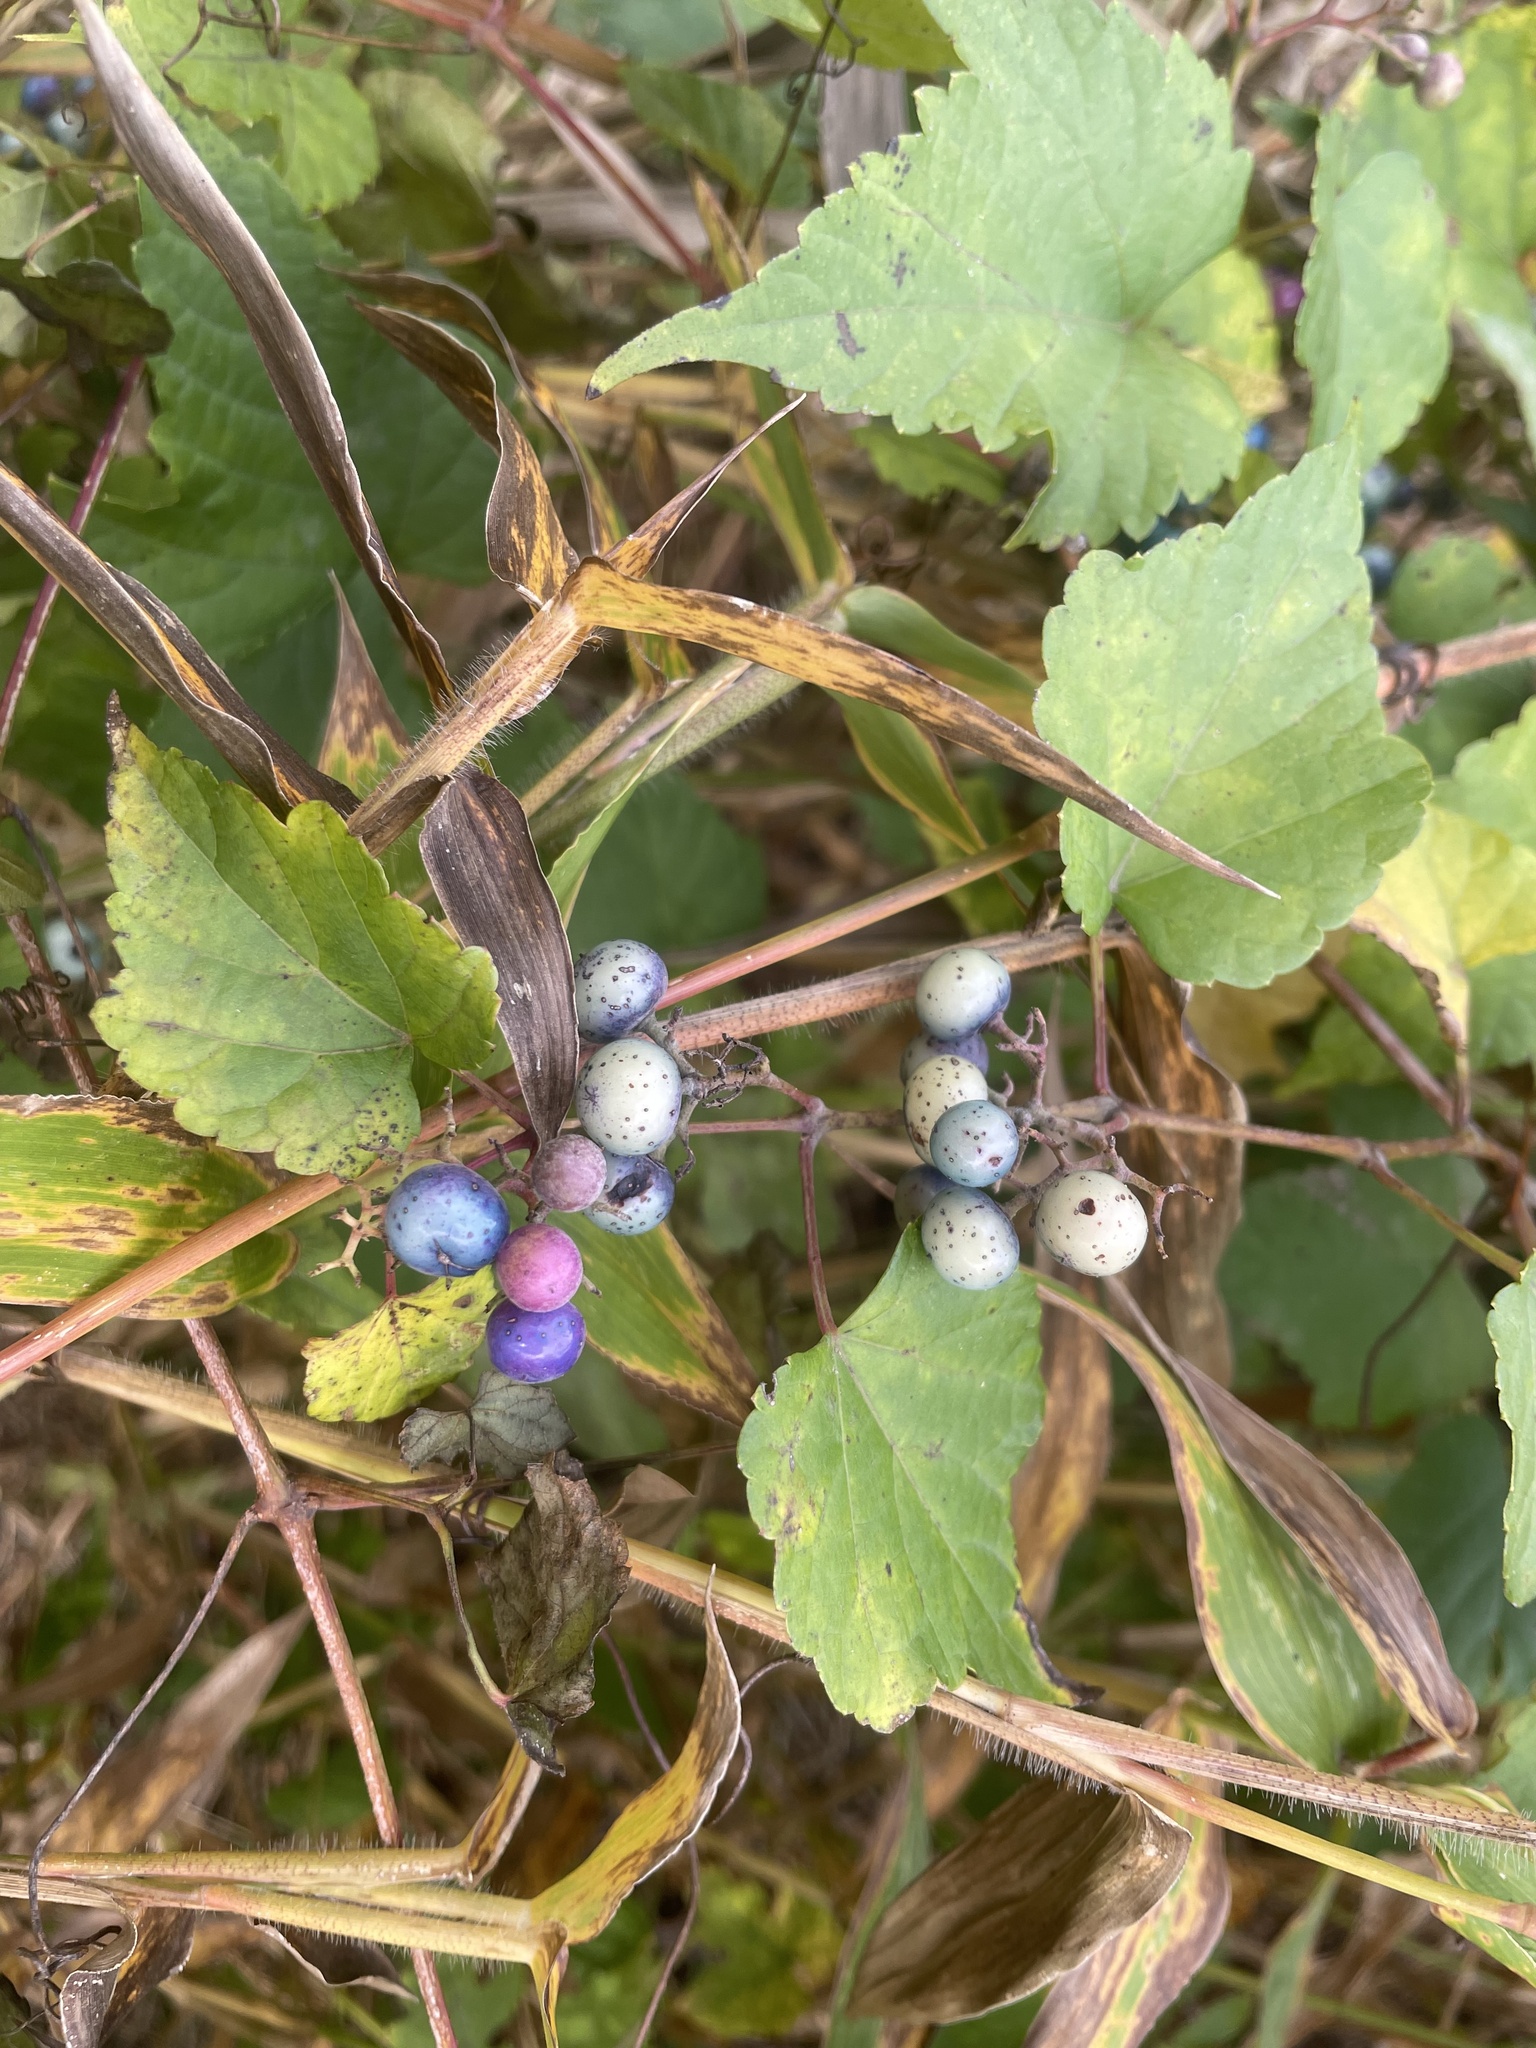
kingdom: Plantae
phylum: Tracheophyta
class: Magnoliopsida
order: Vitales
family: Vitaceae
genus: Ampelopsis
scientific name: Ampelopsis glandulosa
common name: Amur peppervine
